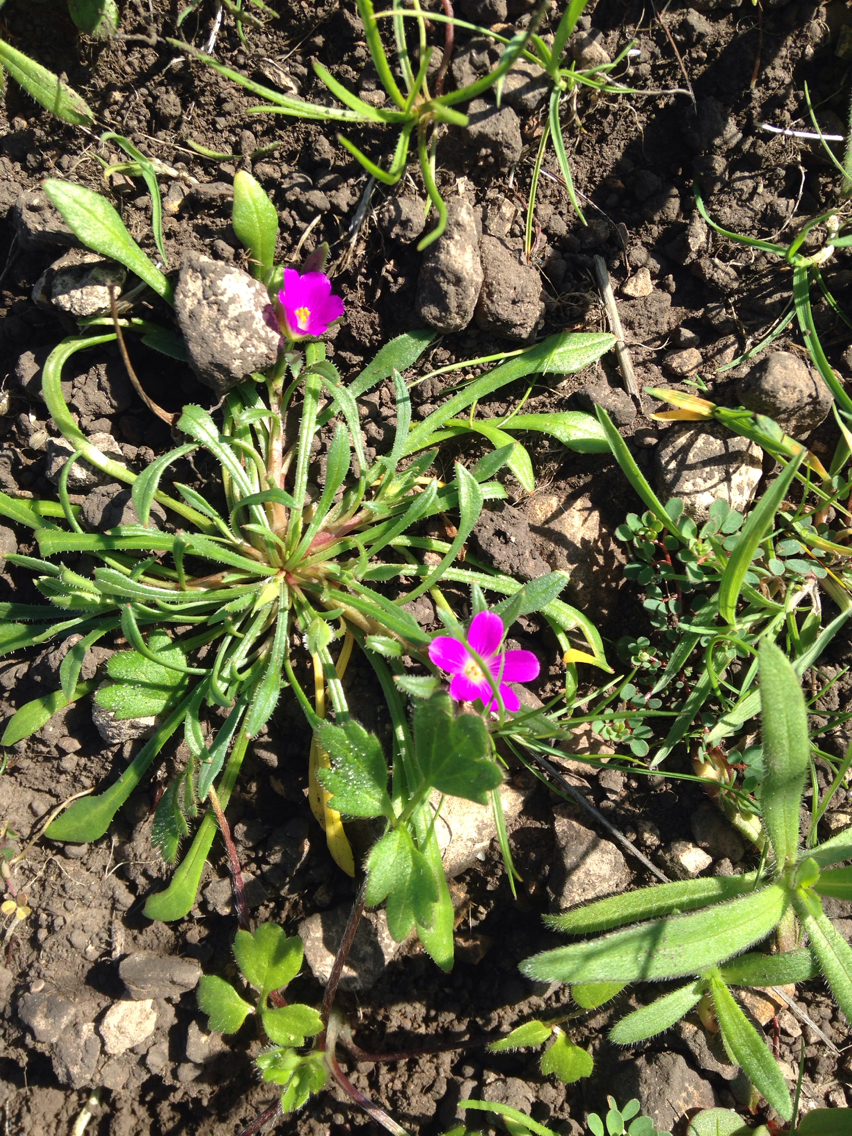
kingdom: Plantae
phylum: Tracheophyta
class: Magnoliopsida
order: Caryophyllales
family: Montiaceae
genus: Calandrinia
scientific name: Calandrinia menziesii
